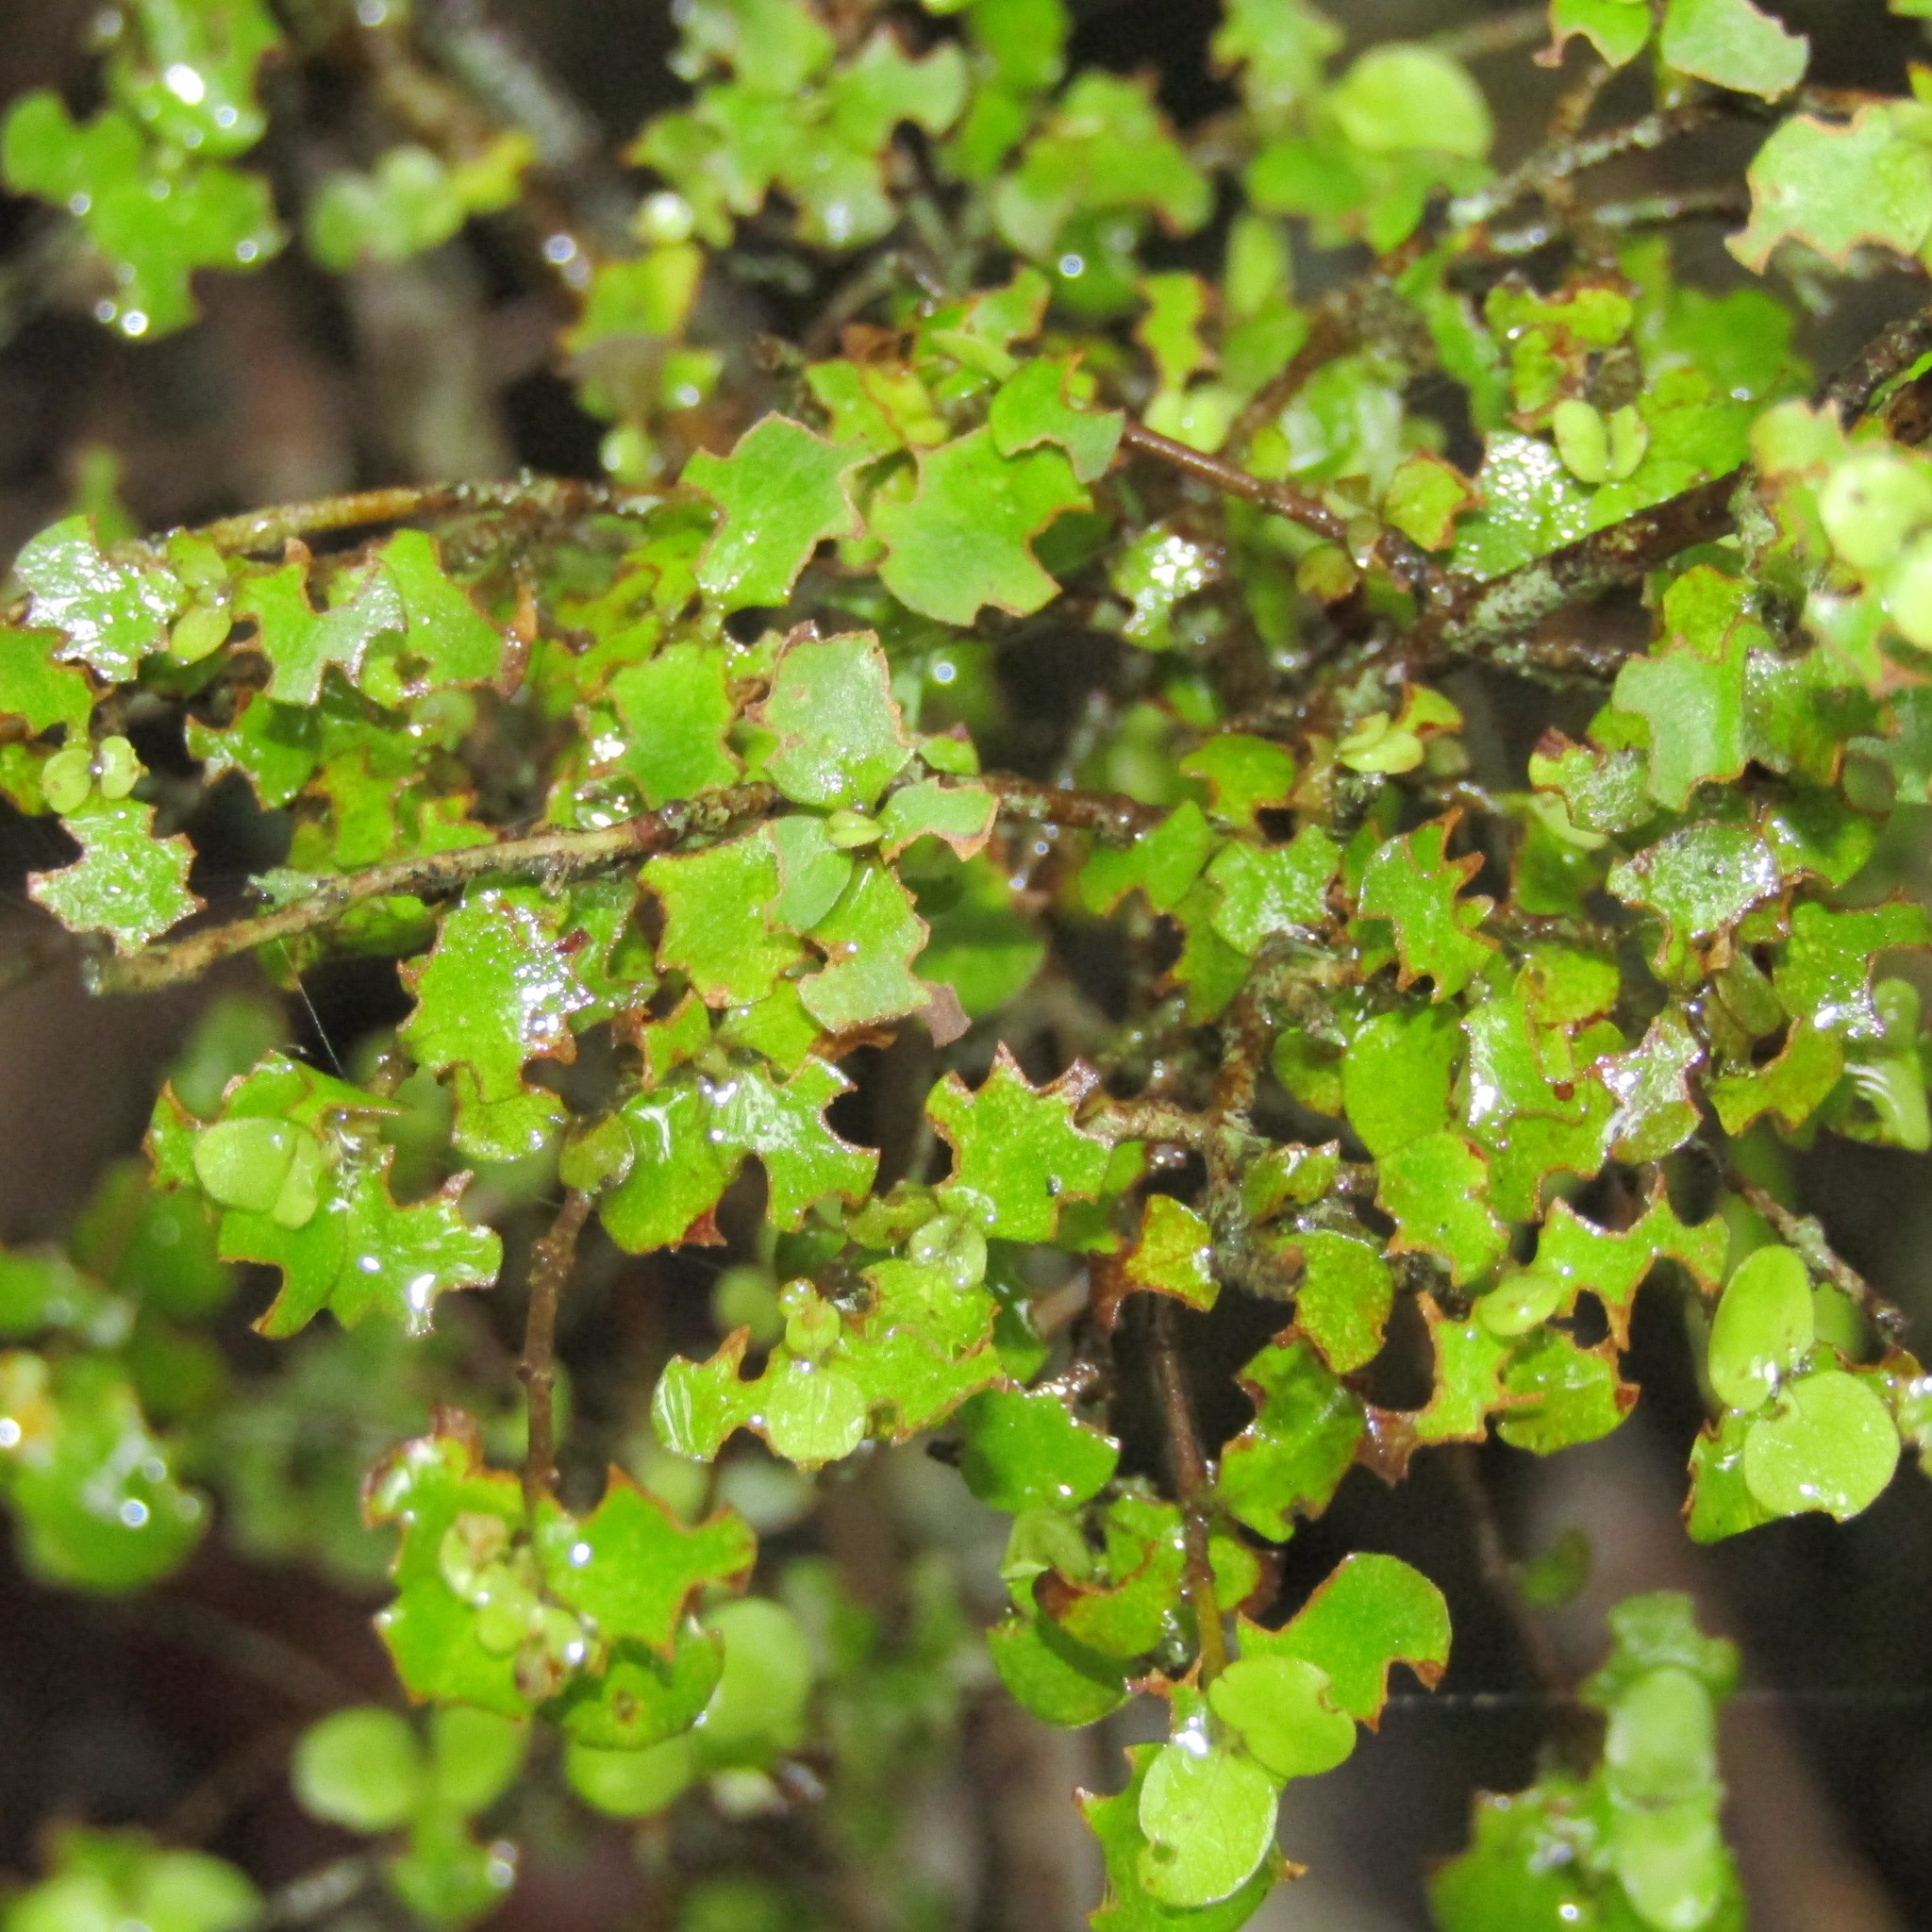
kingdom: Plantae
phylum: Tracheophyta
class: Magnoliopsida
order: Gentianales
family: Rubiaceae
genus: Coprosma
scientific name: Coprosma rhamnoides
